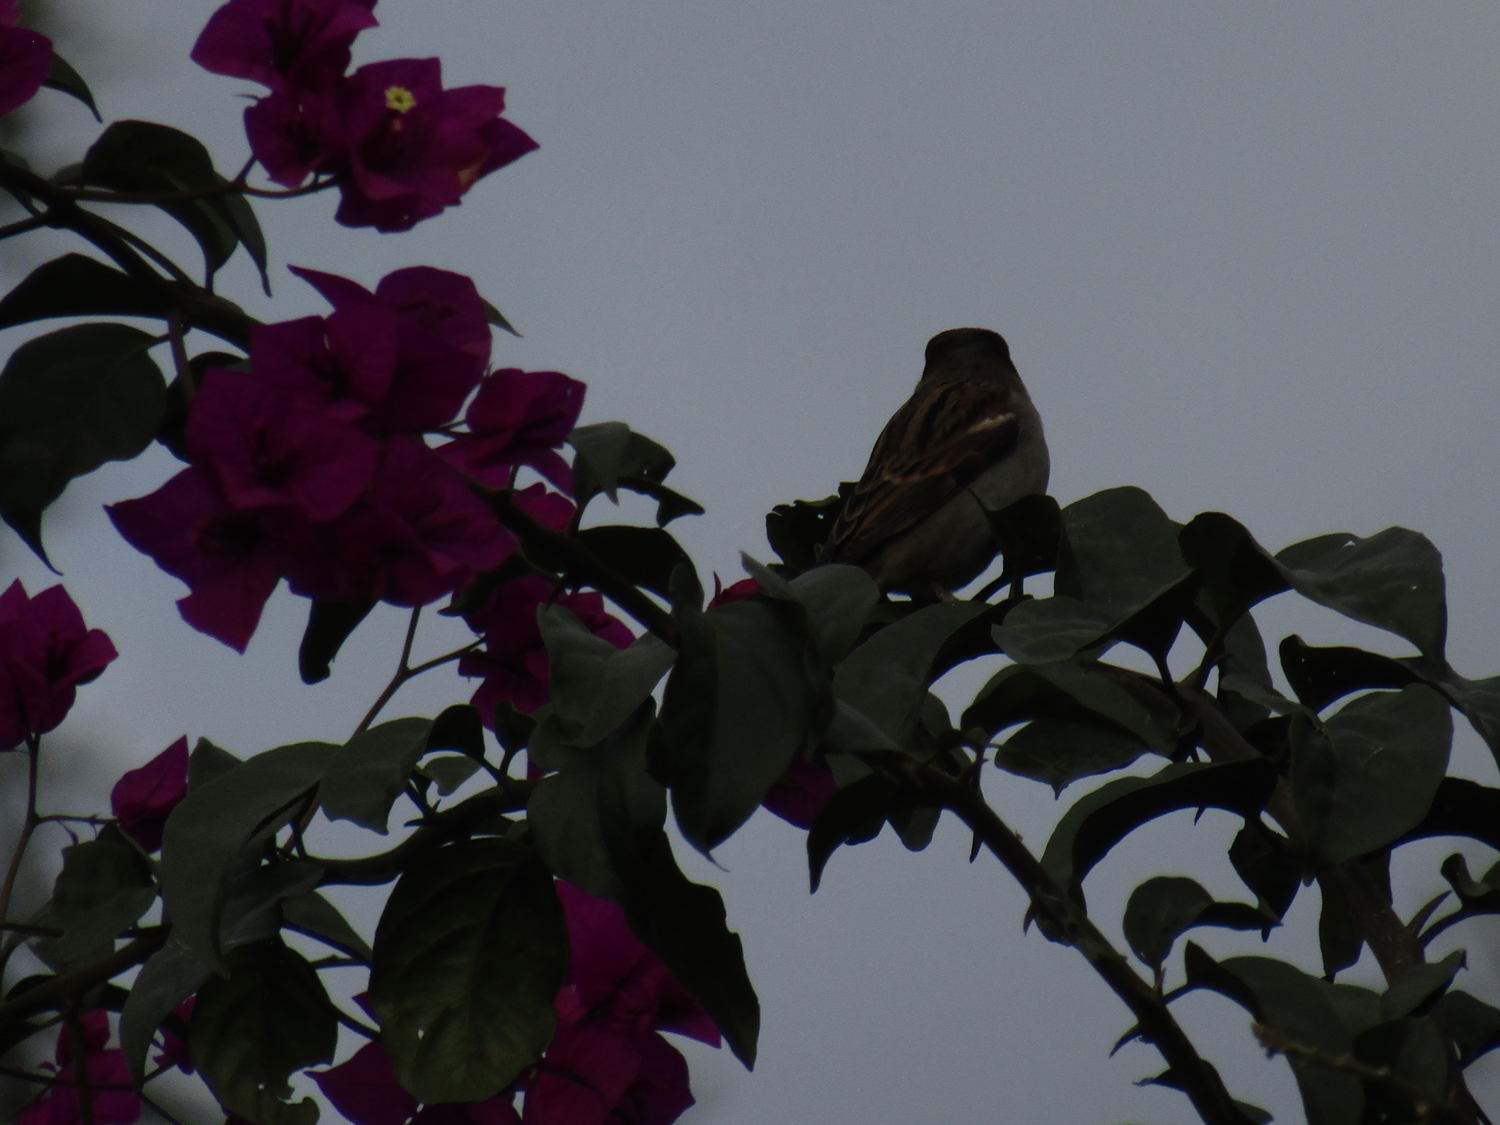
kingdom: Animalia
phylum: Chordata
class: Aves
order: Passeriformes
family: Passeridae
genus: Passer
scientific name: Passer domesticus
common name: House sparrow
